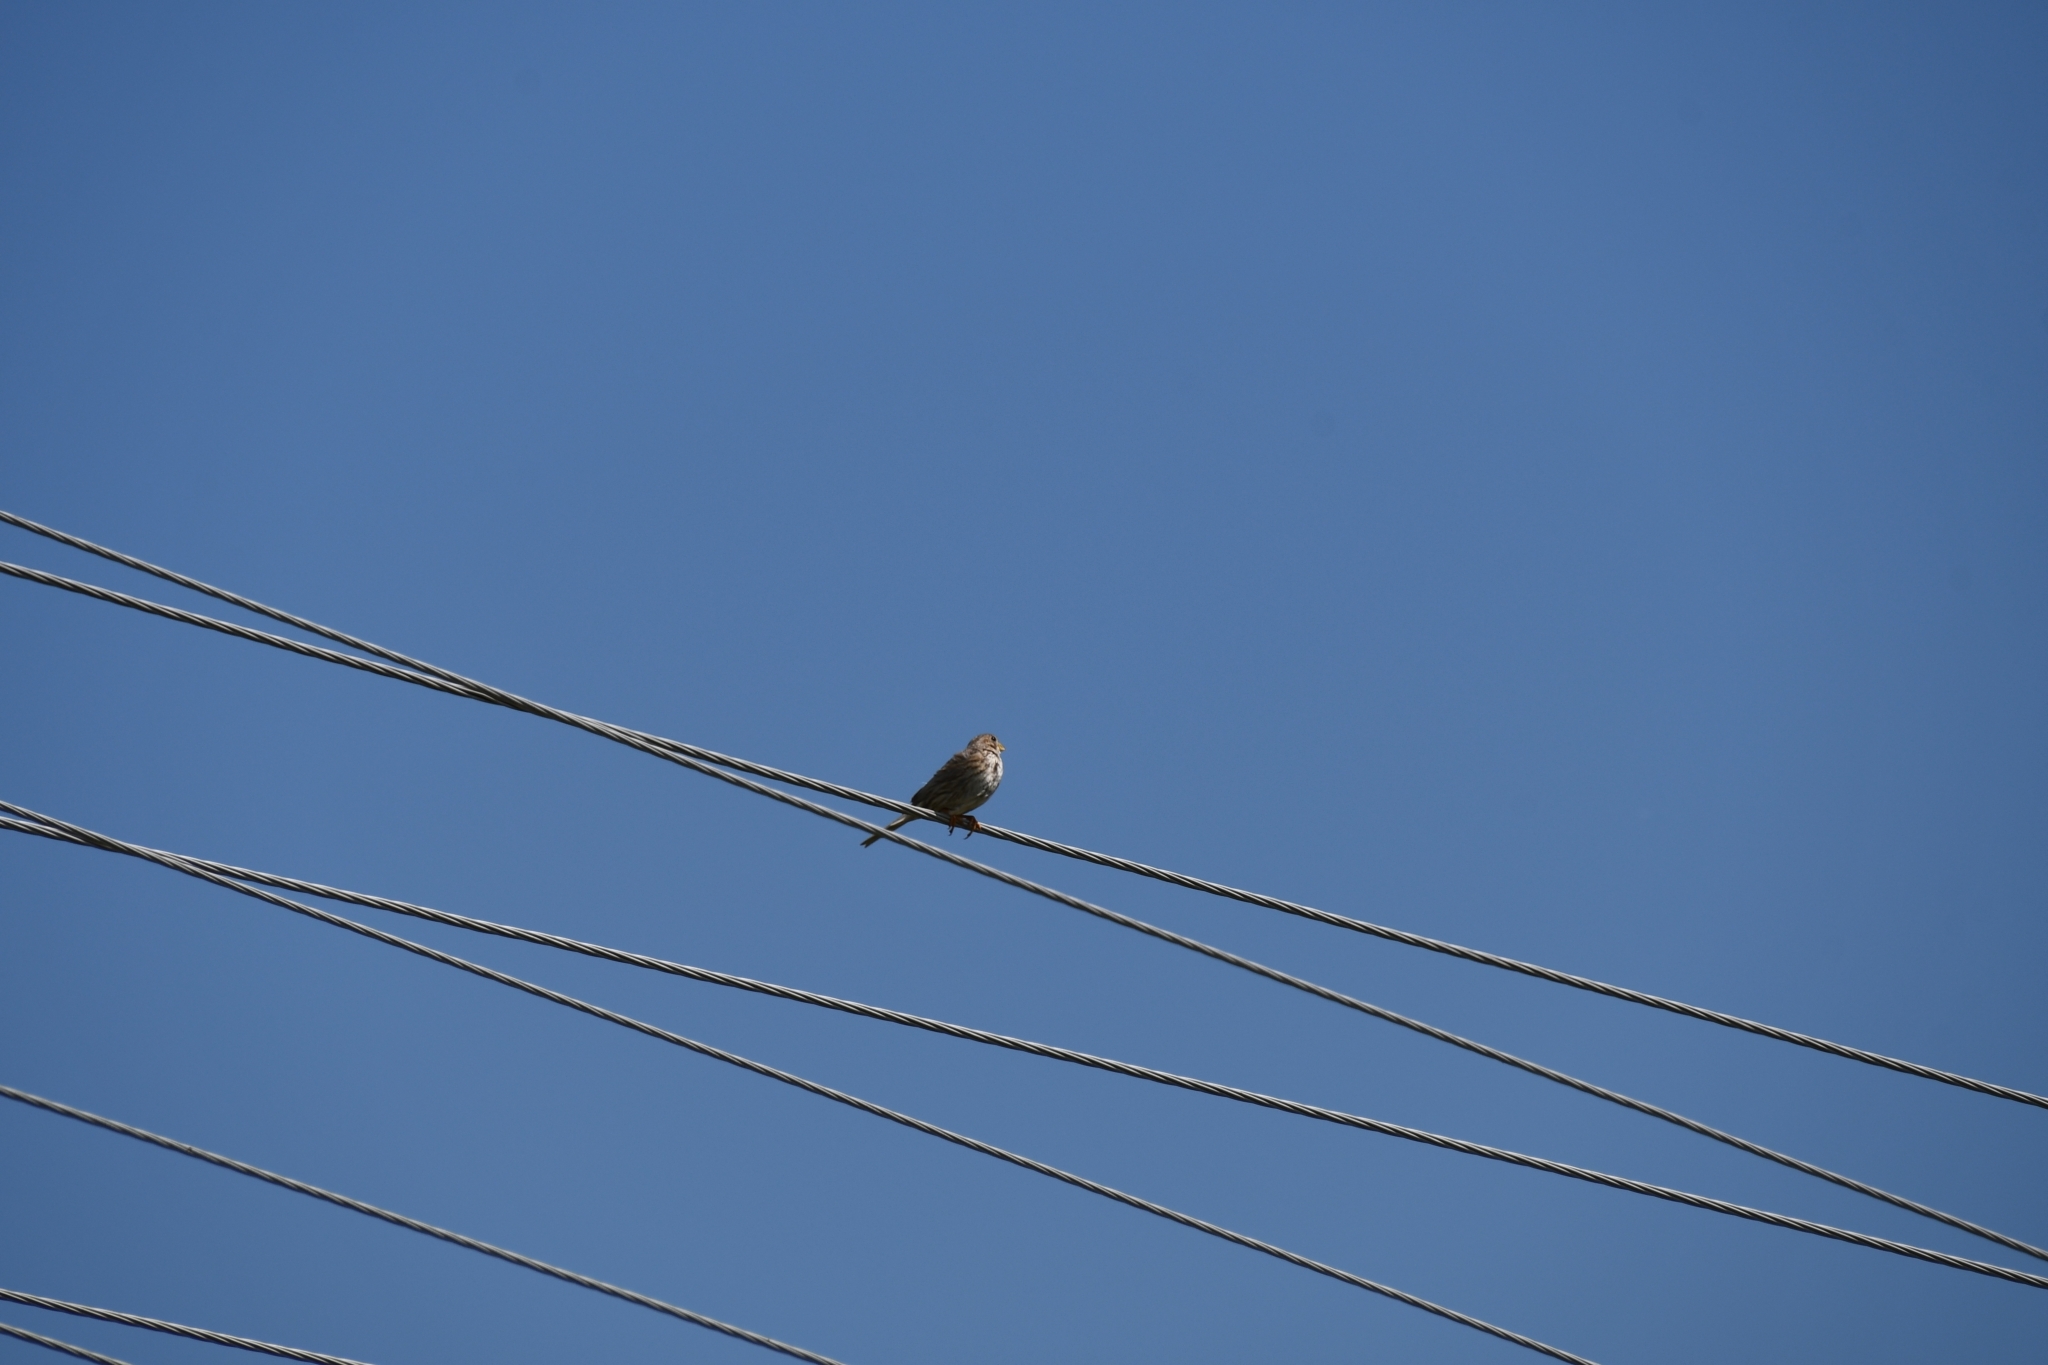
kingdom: Animalia
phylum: Chordata
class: Aves
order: Passeriformes
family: Emberizidae
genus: Emberiza
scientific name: Emberiza calandra
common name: Corn bunting
